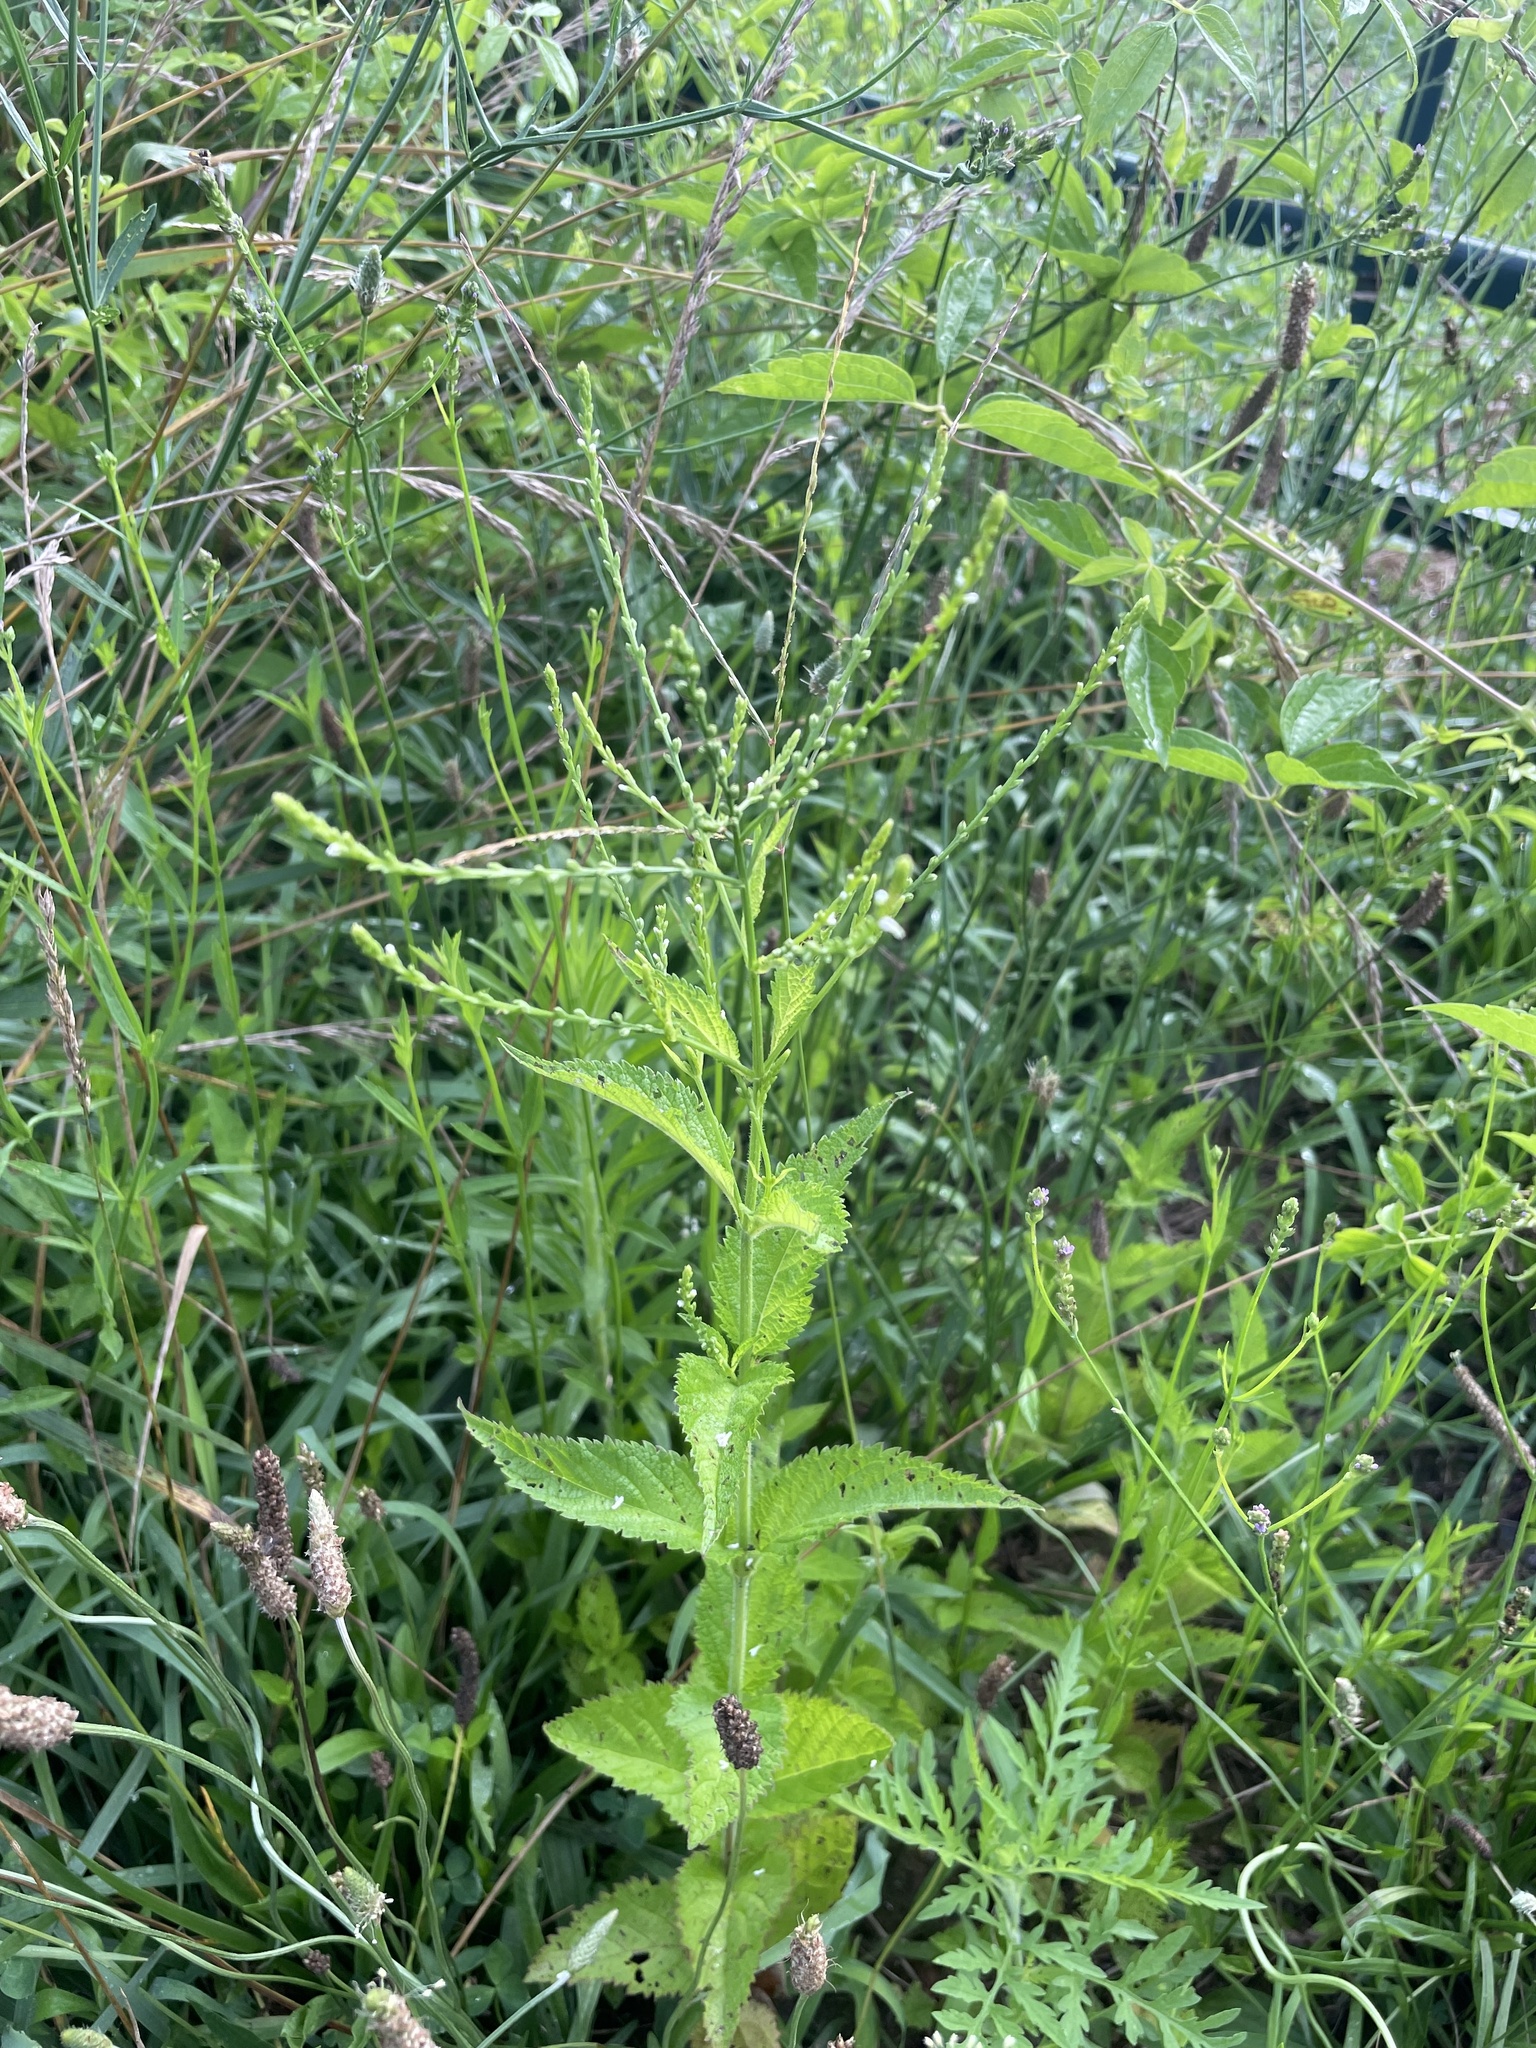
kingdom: Plantae
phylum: Tracheophyta
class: Magnoliopsida
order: Lamiales
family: Verbenaceae
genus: Verbena
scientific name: Verbena urticifolia
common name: Nettle-leaved vervain
